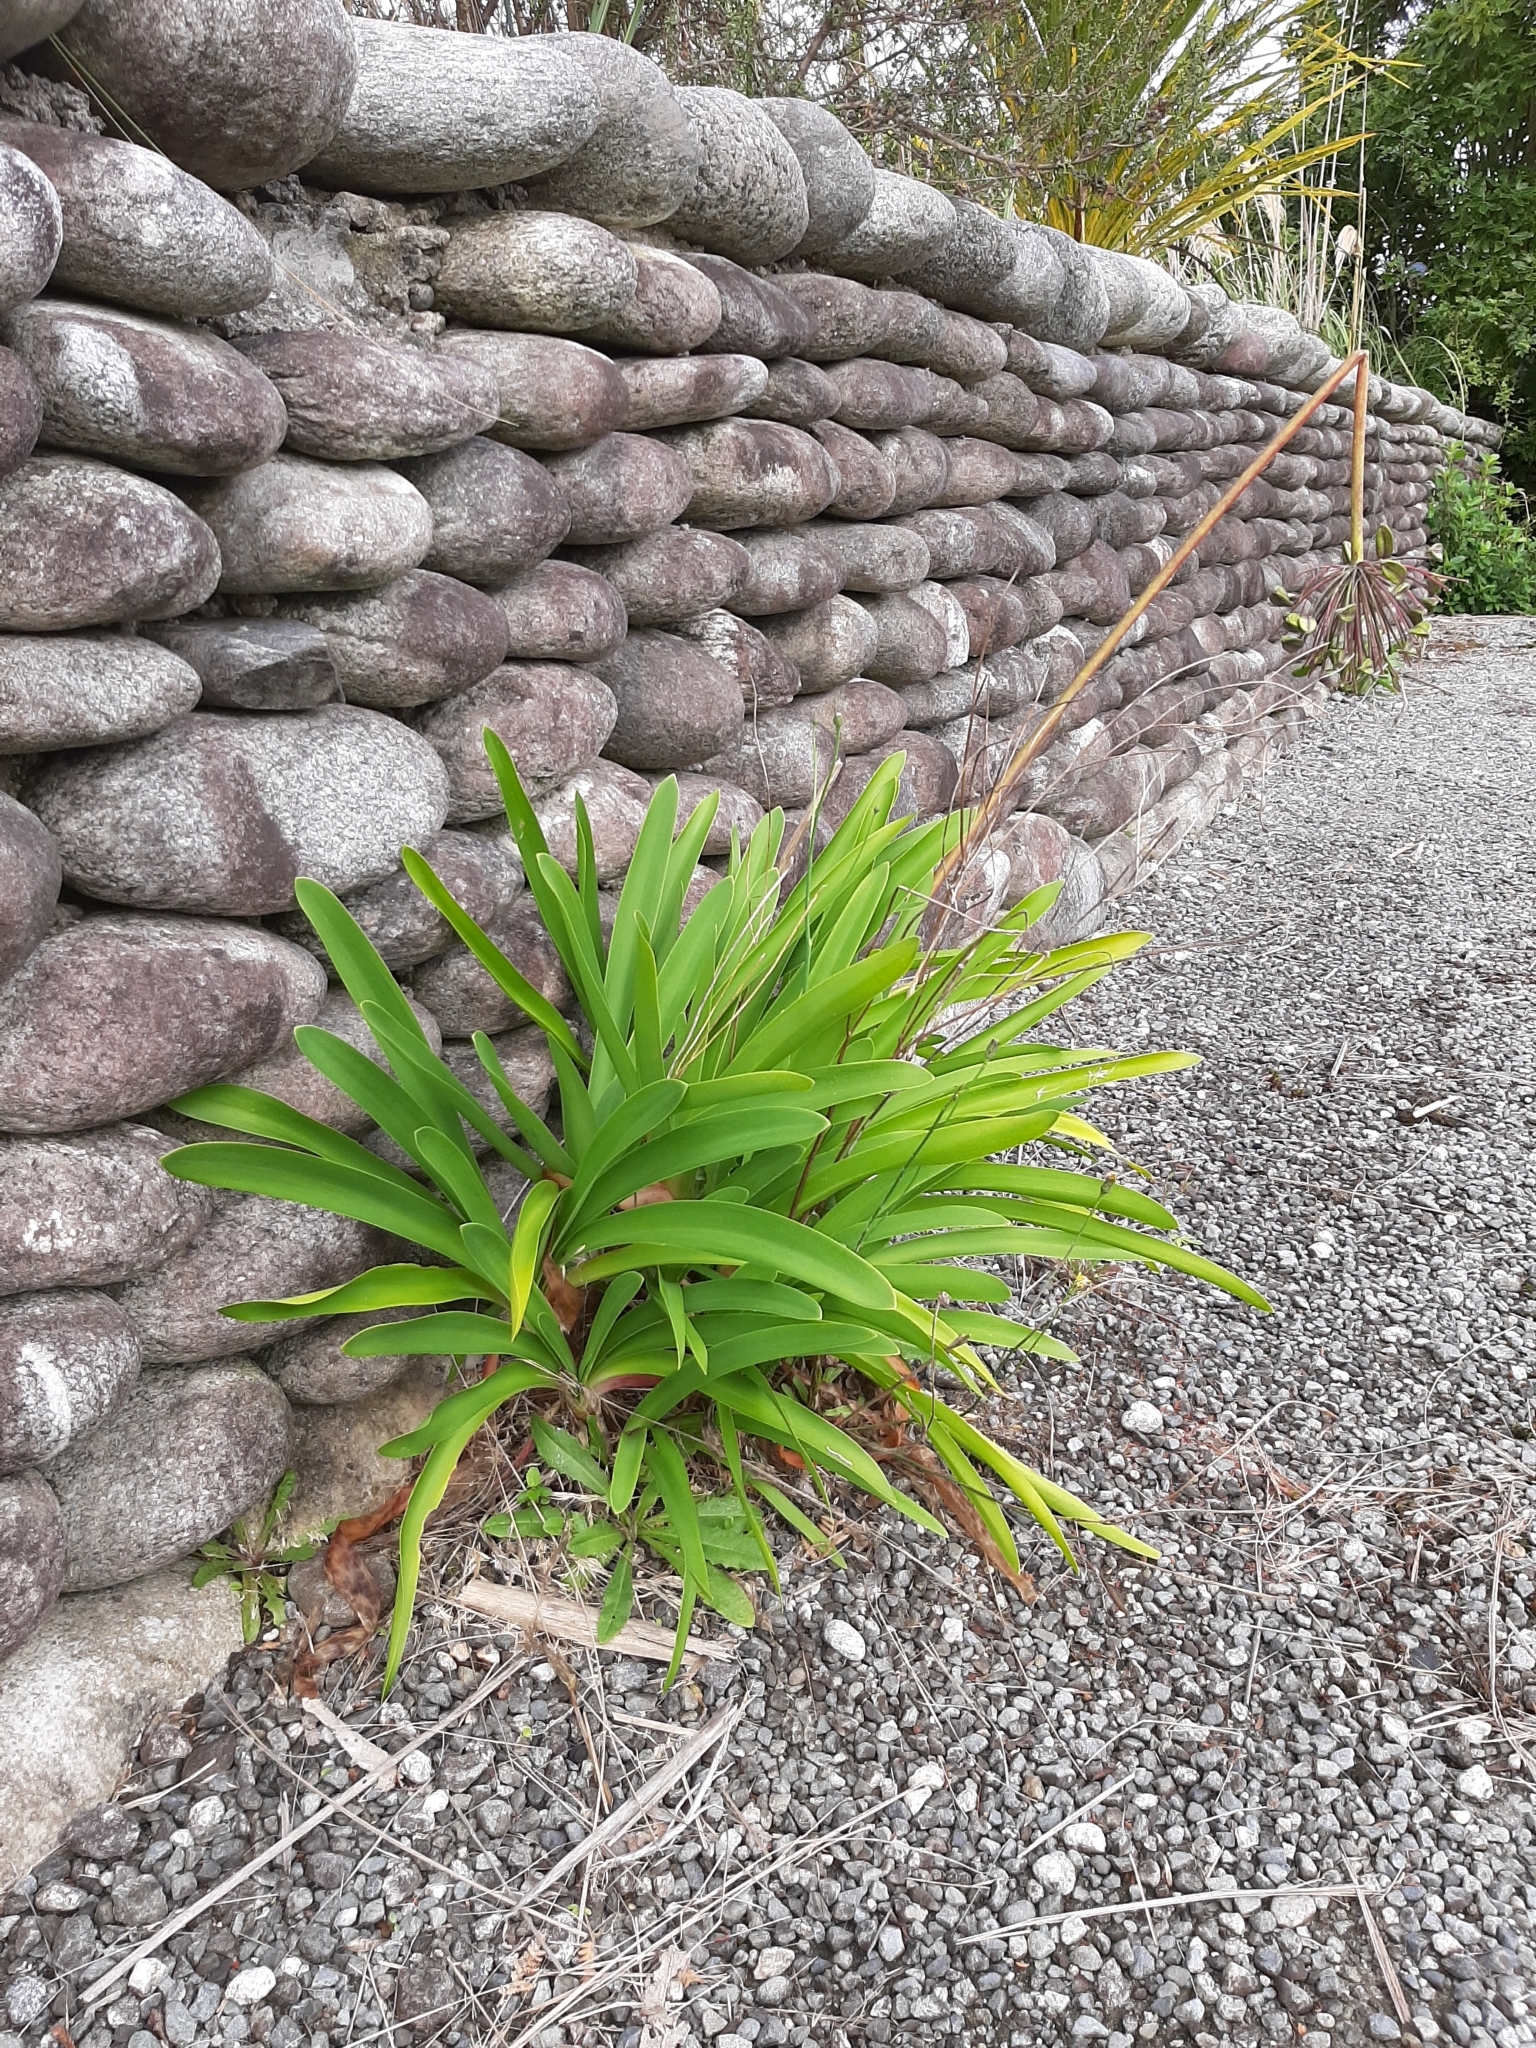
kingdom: Plantae
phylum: Tracheophyta
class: Liliopsida
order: Asparagales
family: Amaryllidaceae
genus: Agapanthus
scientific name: Agapanthus praecox
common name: African-lily
